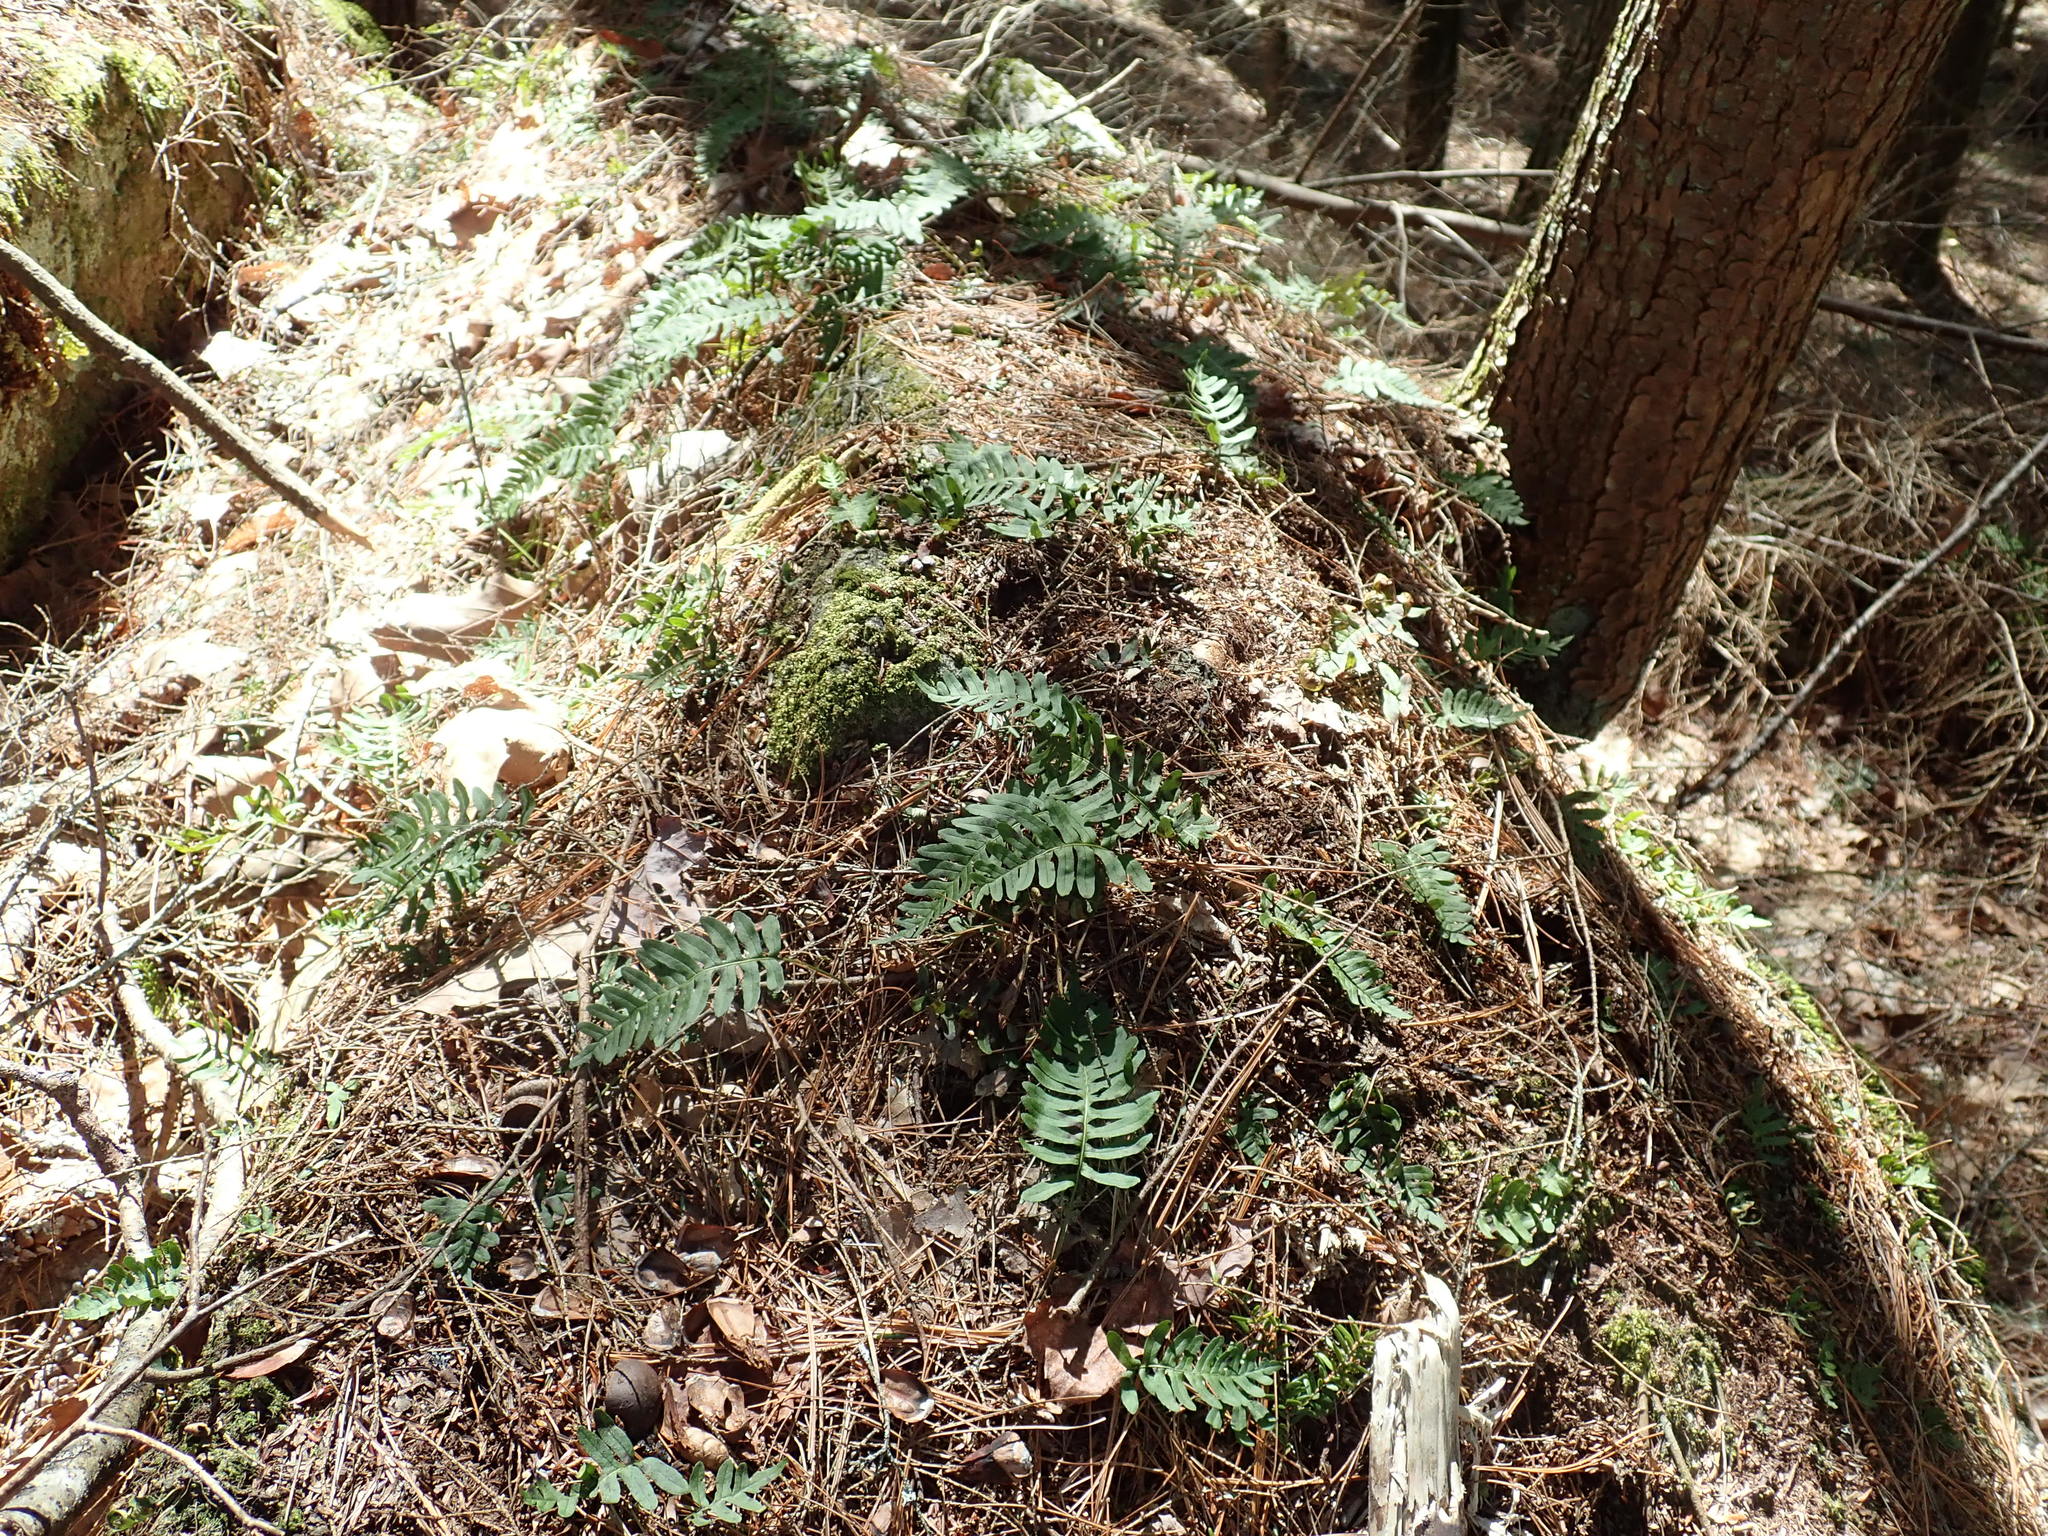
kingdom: Plantae
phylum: Tracheophyta
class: Polypodiopsida
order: Polypodiales
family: Polypodiaceae
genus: Polypodium
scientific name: Polypodium
